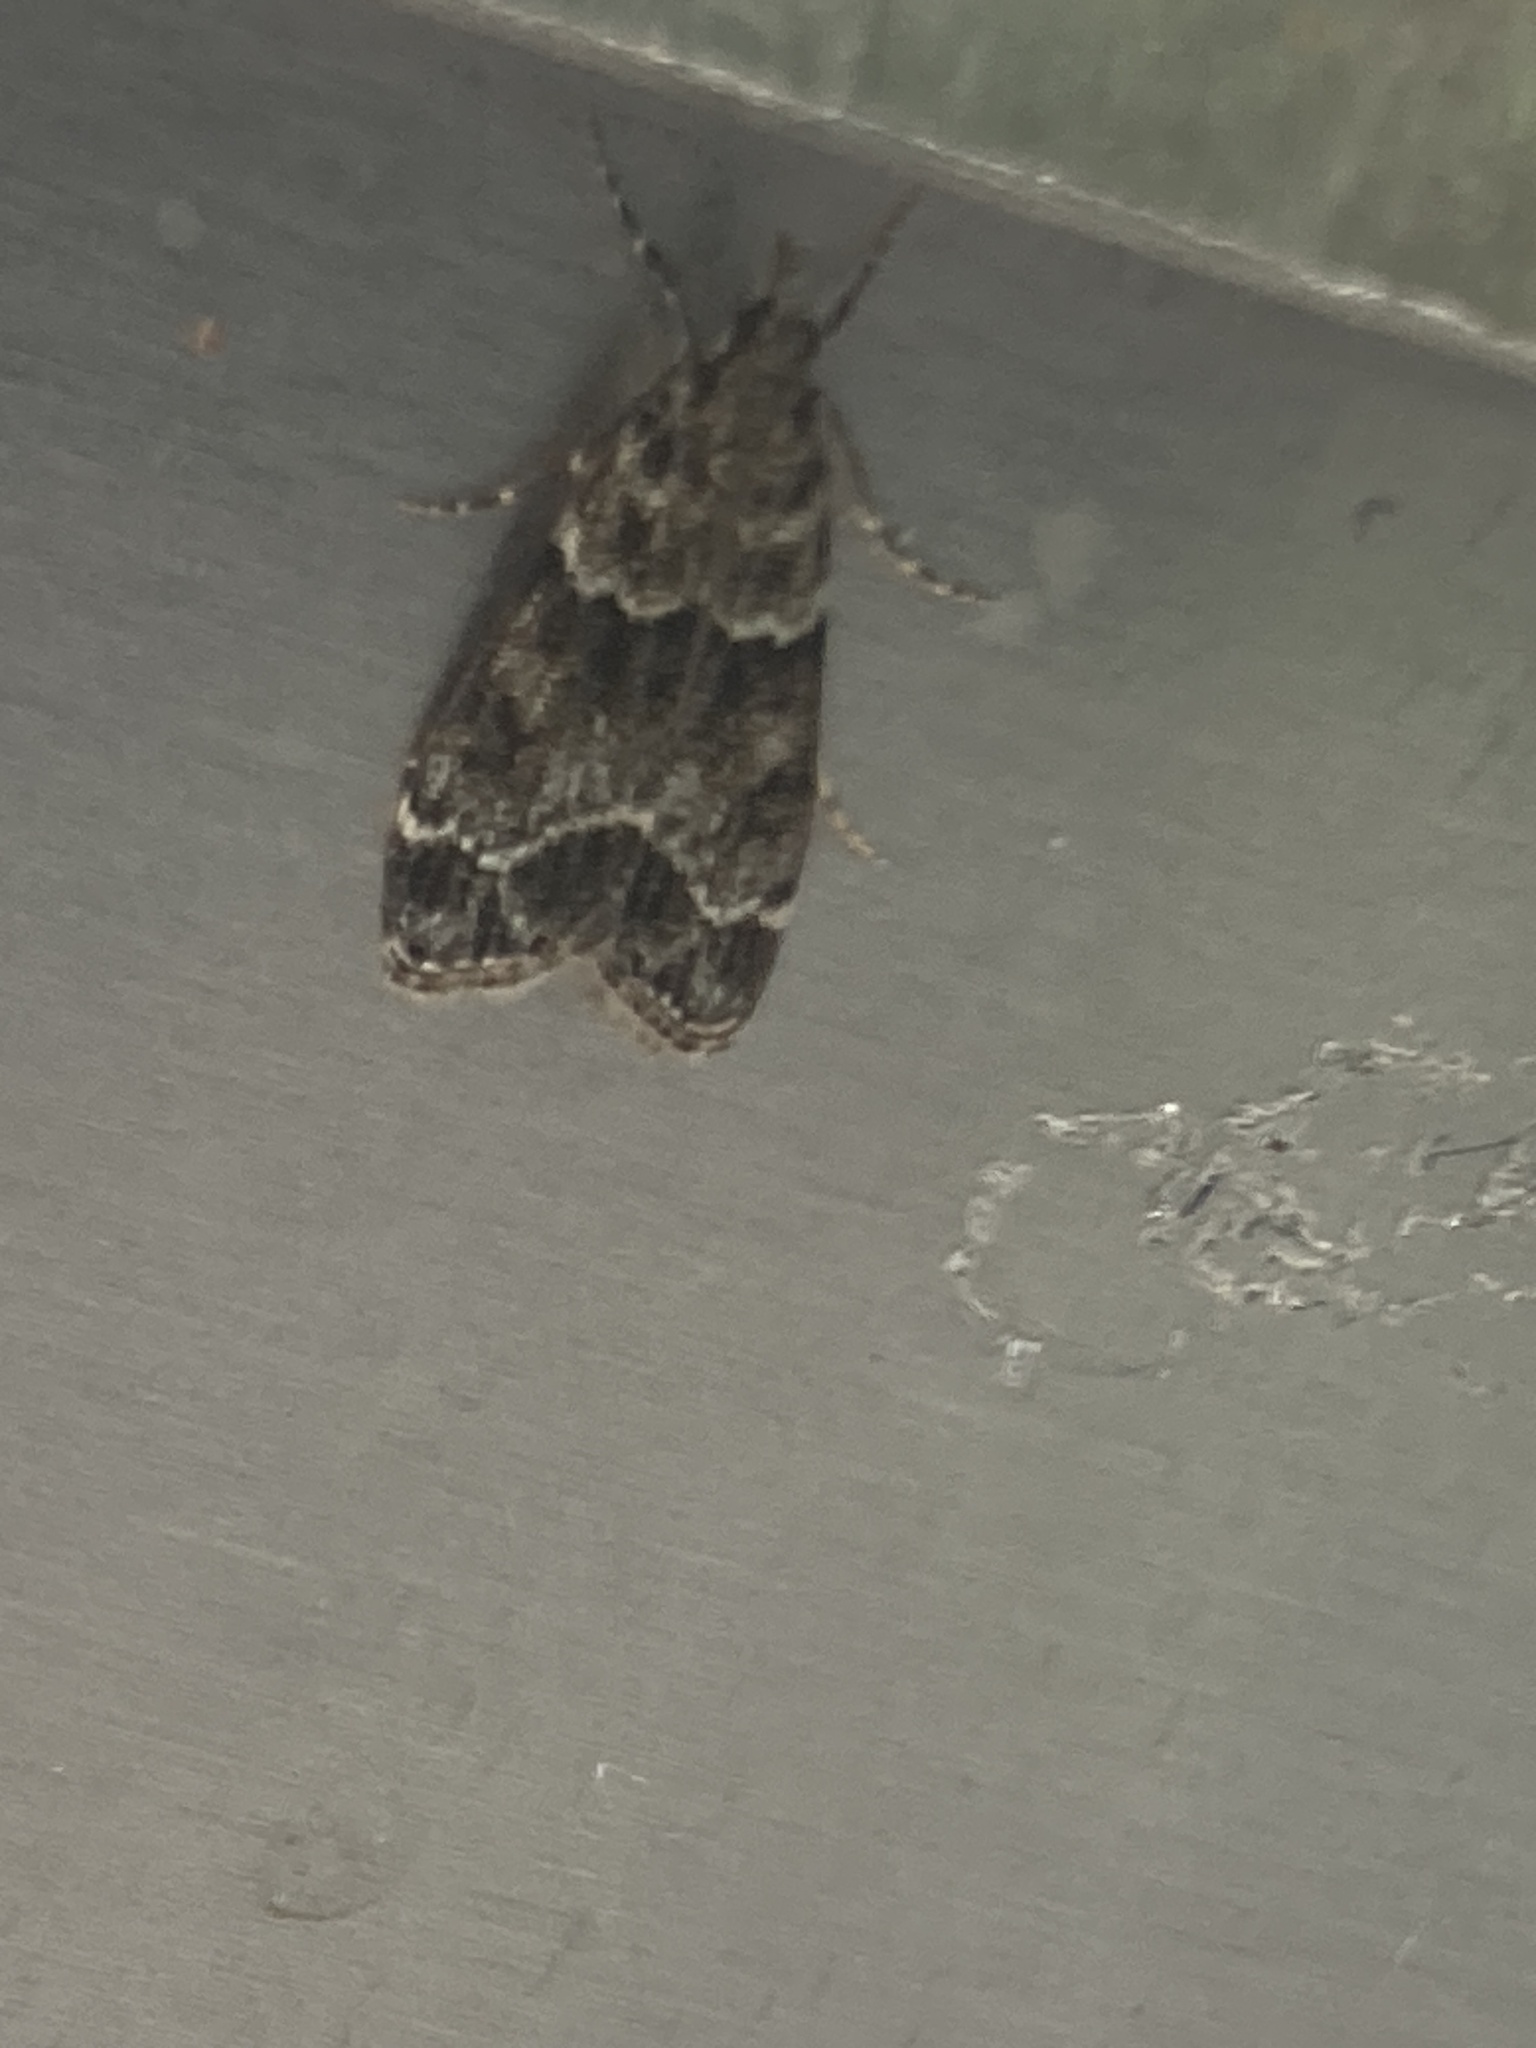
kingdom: Animalia
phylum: Arthropoda
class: Insecta
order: Lepidoptera
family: Crambidae
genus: Eudonia
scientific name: Eudonia mercurella
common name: Small grey
